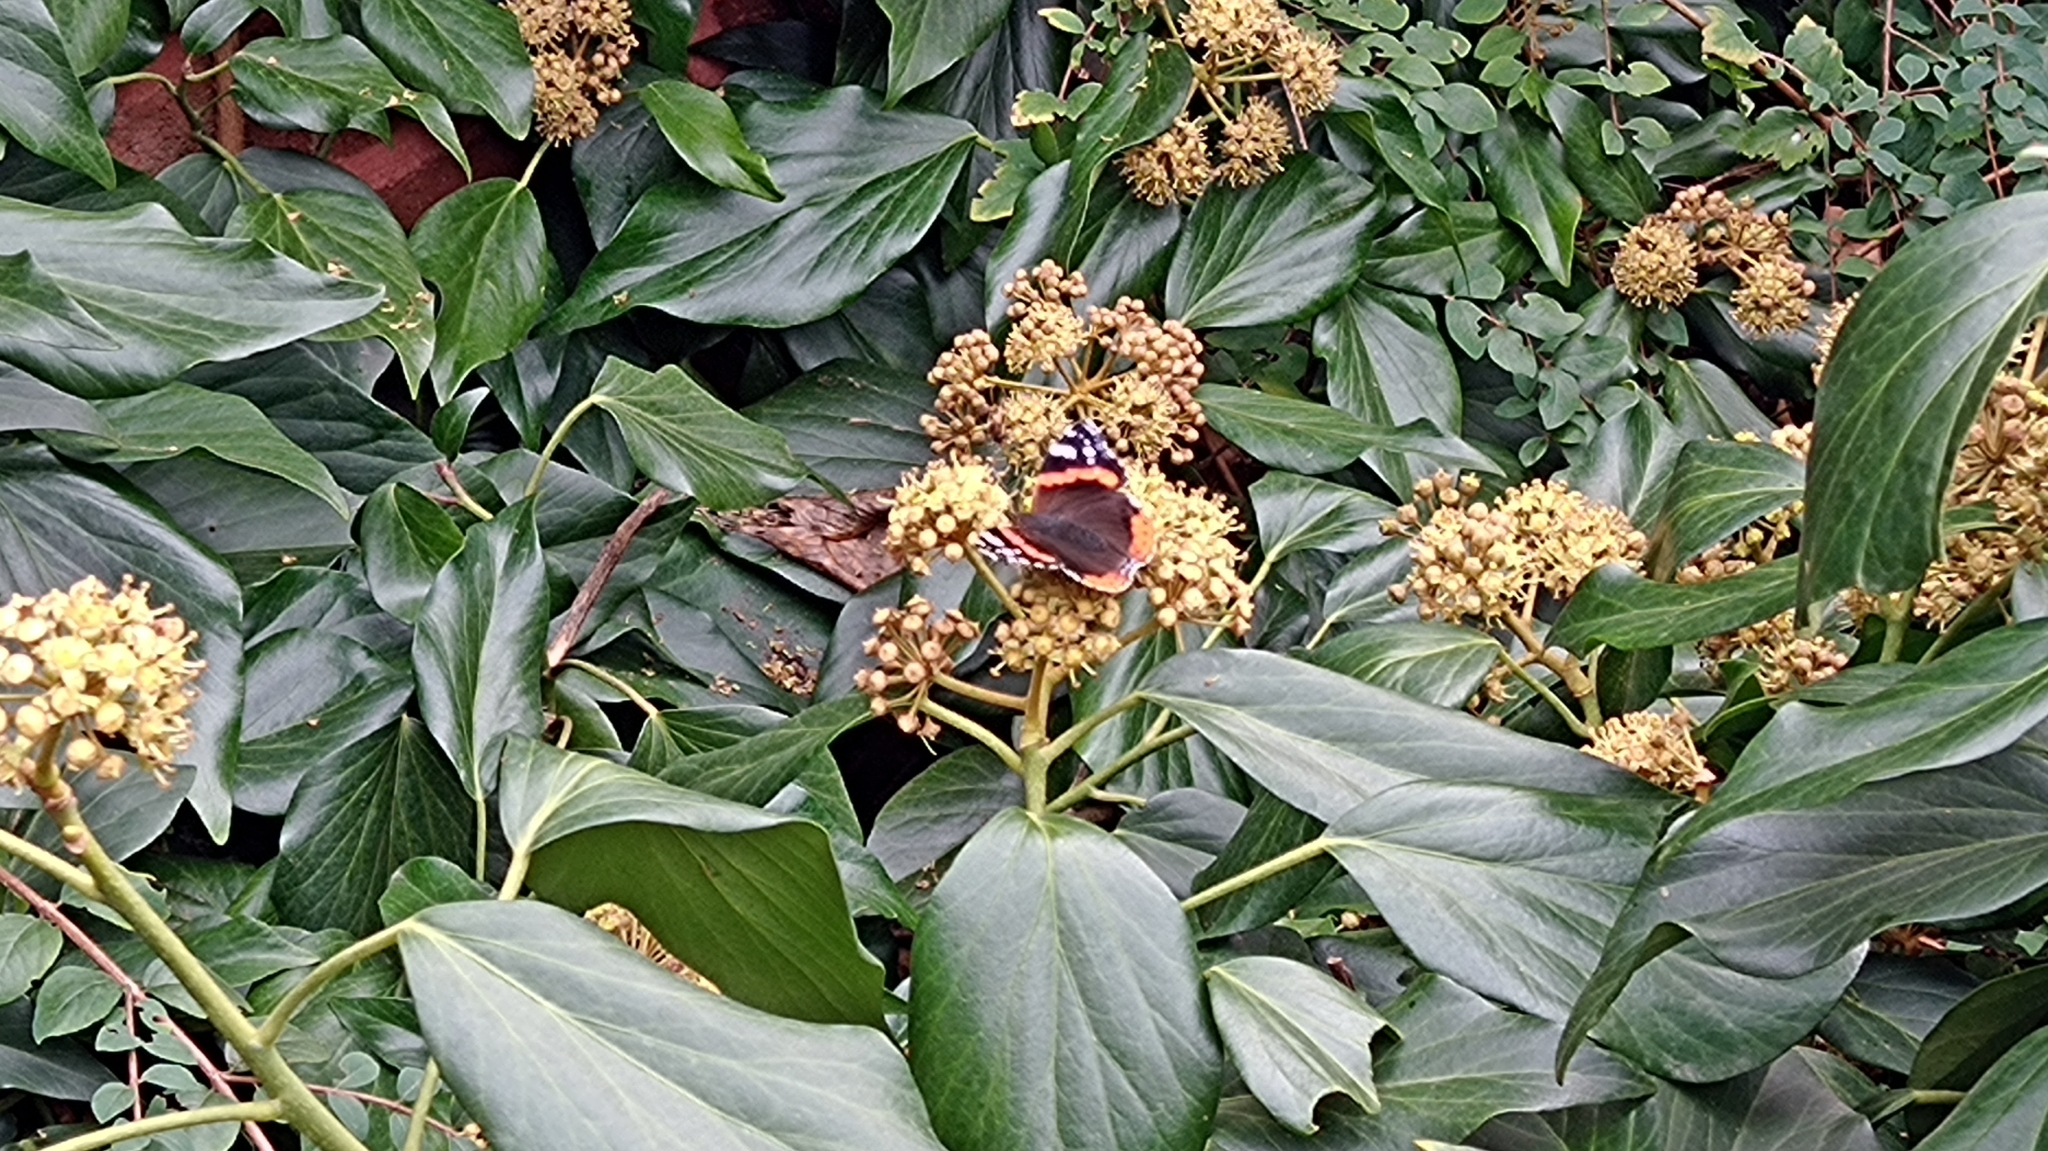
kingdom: Animalia
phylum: Arthropoda
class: Insecta
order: Lepidoptera
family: Nymphalidae
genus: Vanessa
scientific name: Vanessa atalanta
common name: Red admiral
